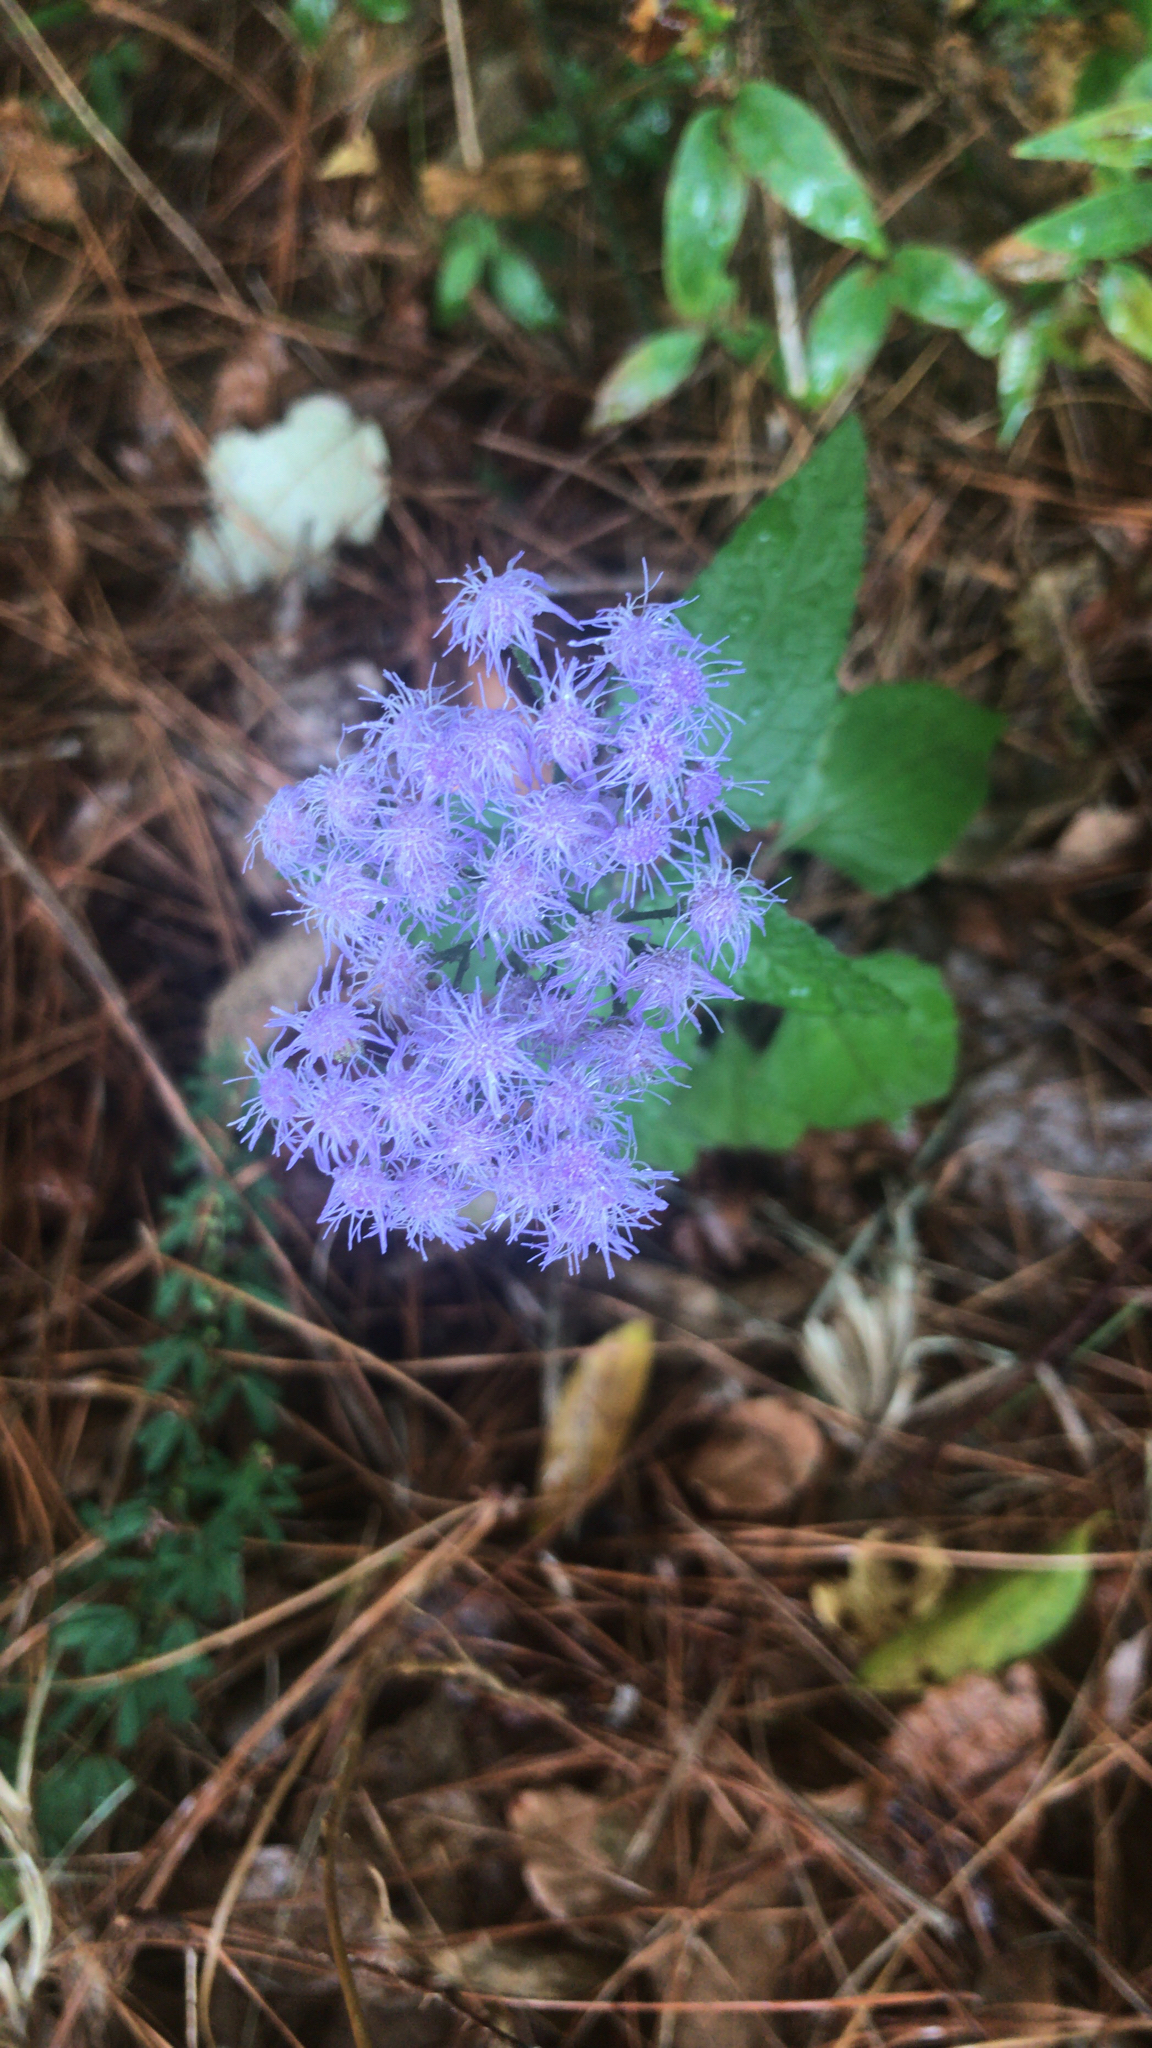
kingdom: Plantae
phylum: Tracheophyta
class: Magnoliopsida
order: Asterales
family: Asteraceae
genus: Conoclinium
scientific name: Conoclinium coelestinum
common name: Blue mistflower
